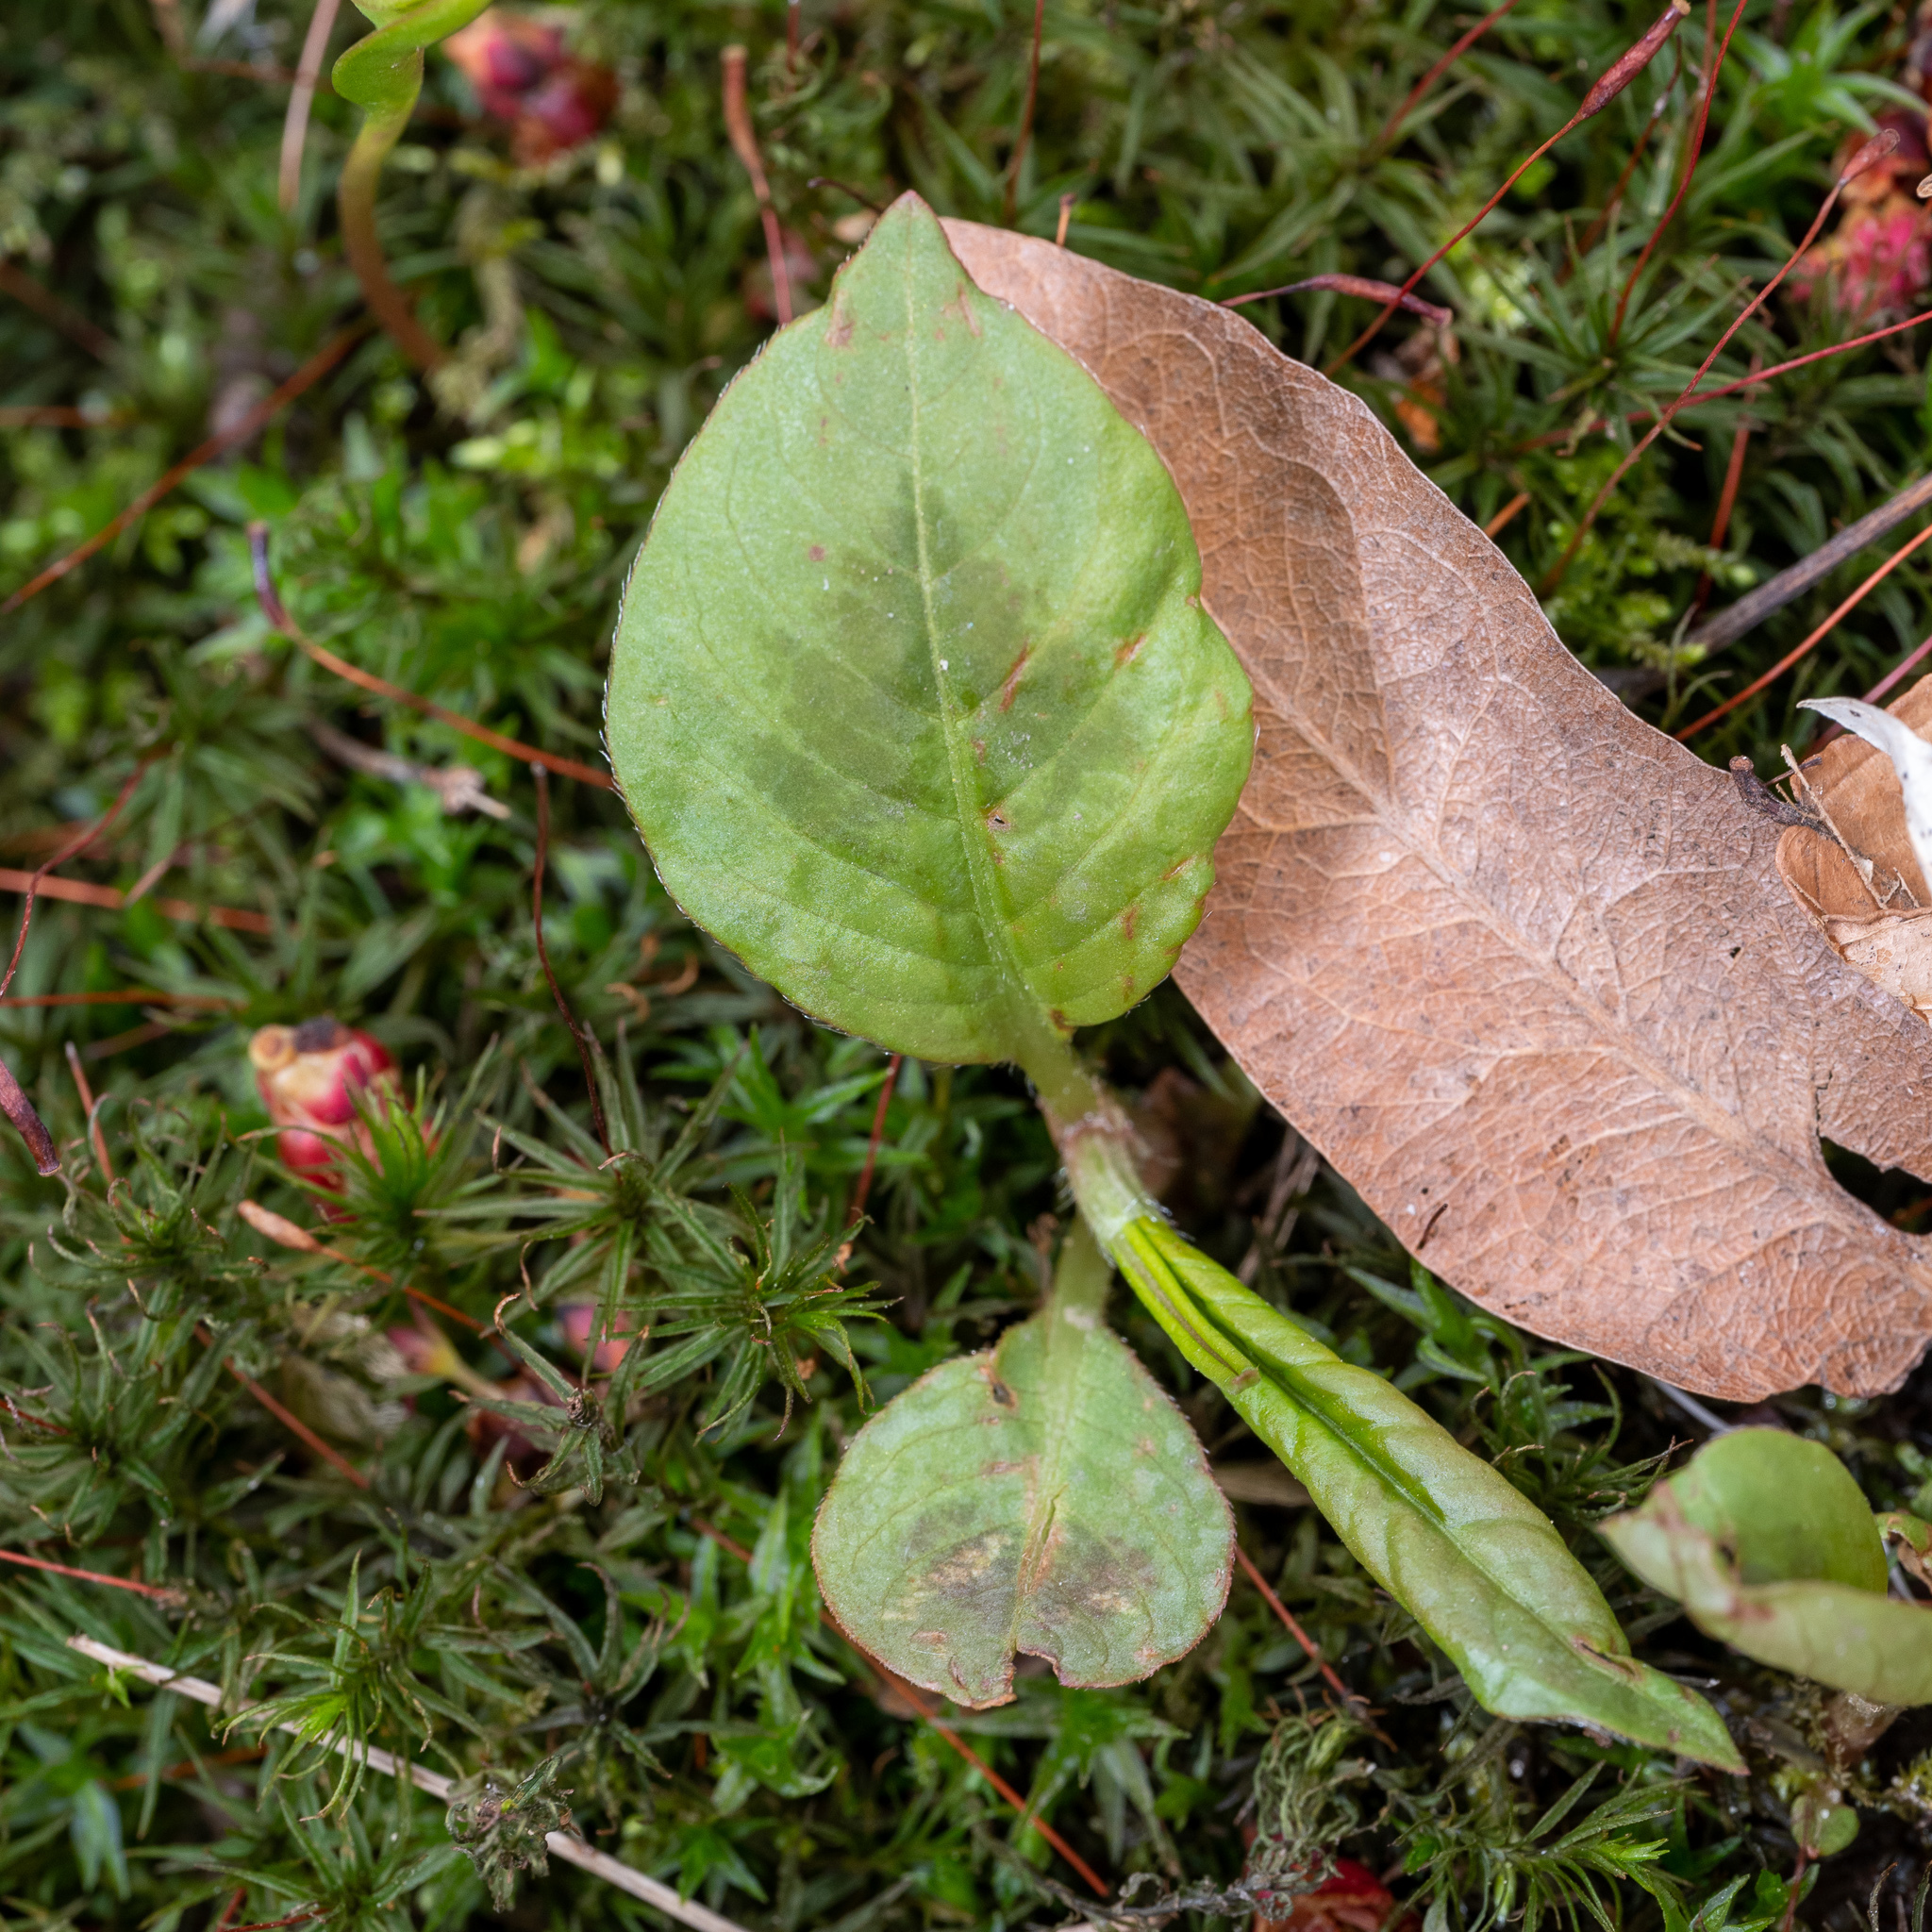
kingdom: Plantae
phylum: Tracheophyta
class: Magnoliopsida
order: Caryophyllales
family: Polygonaceae
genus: Persicaria
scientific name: Persicaria virginiana
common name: Jumpseed
